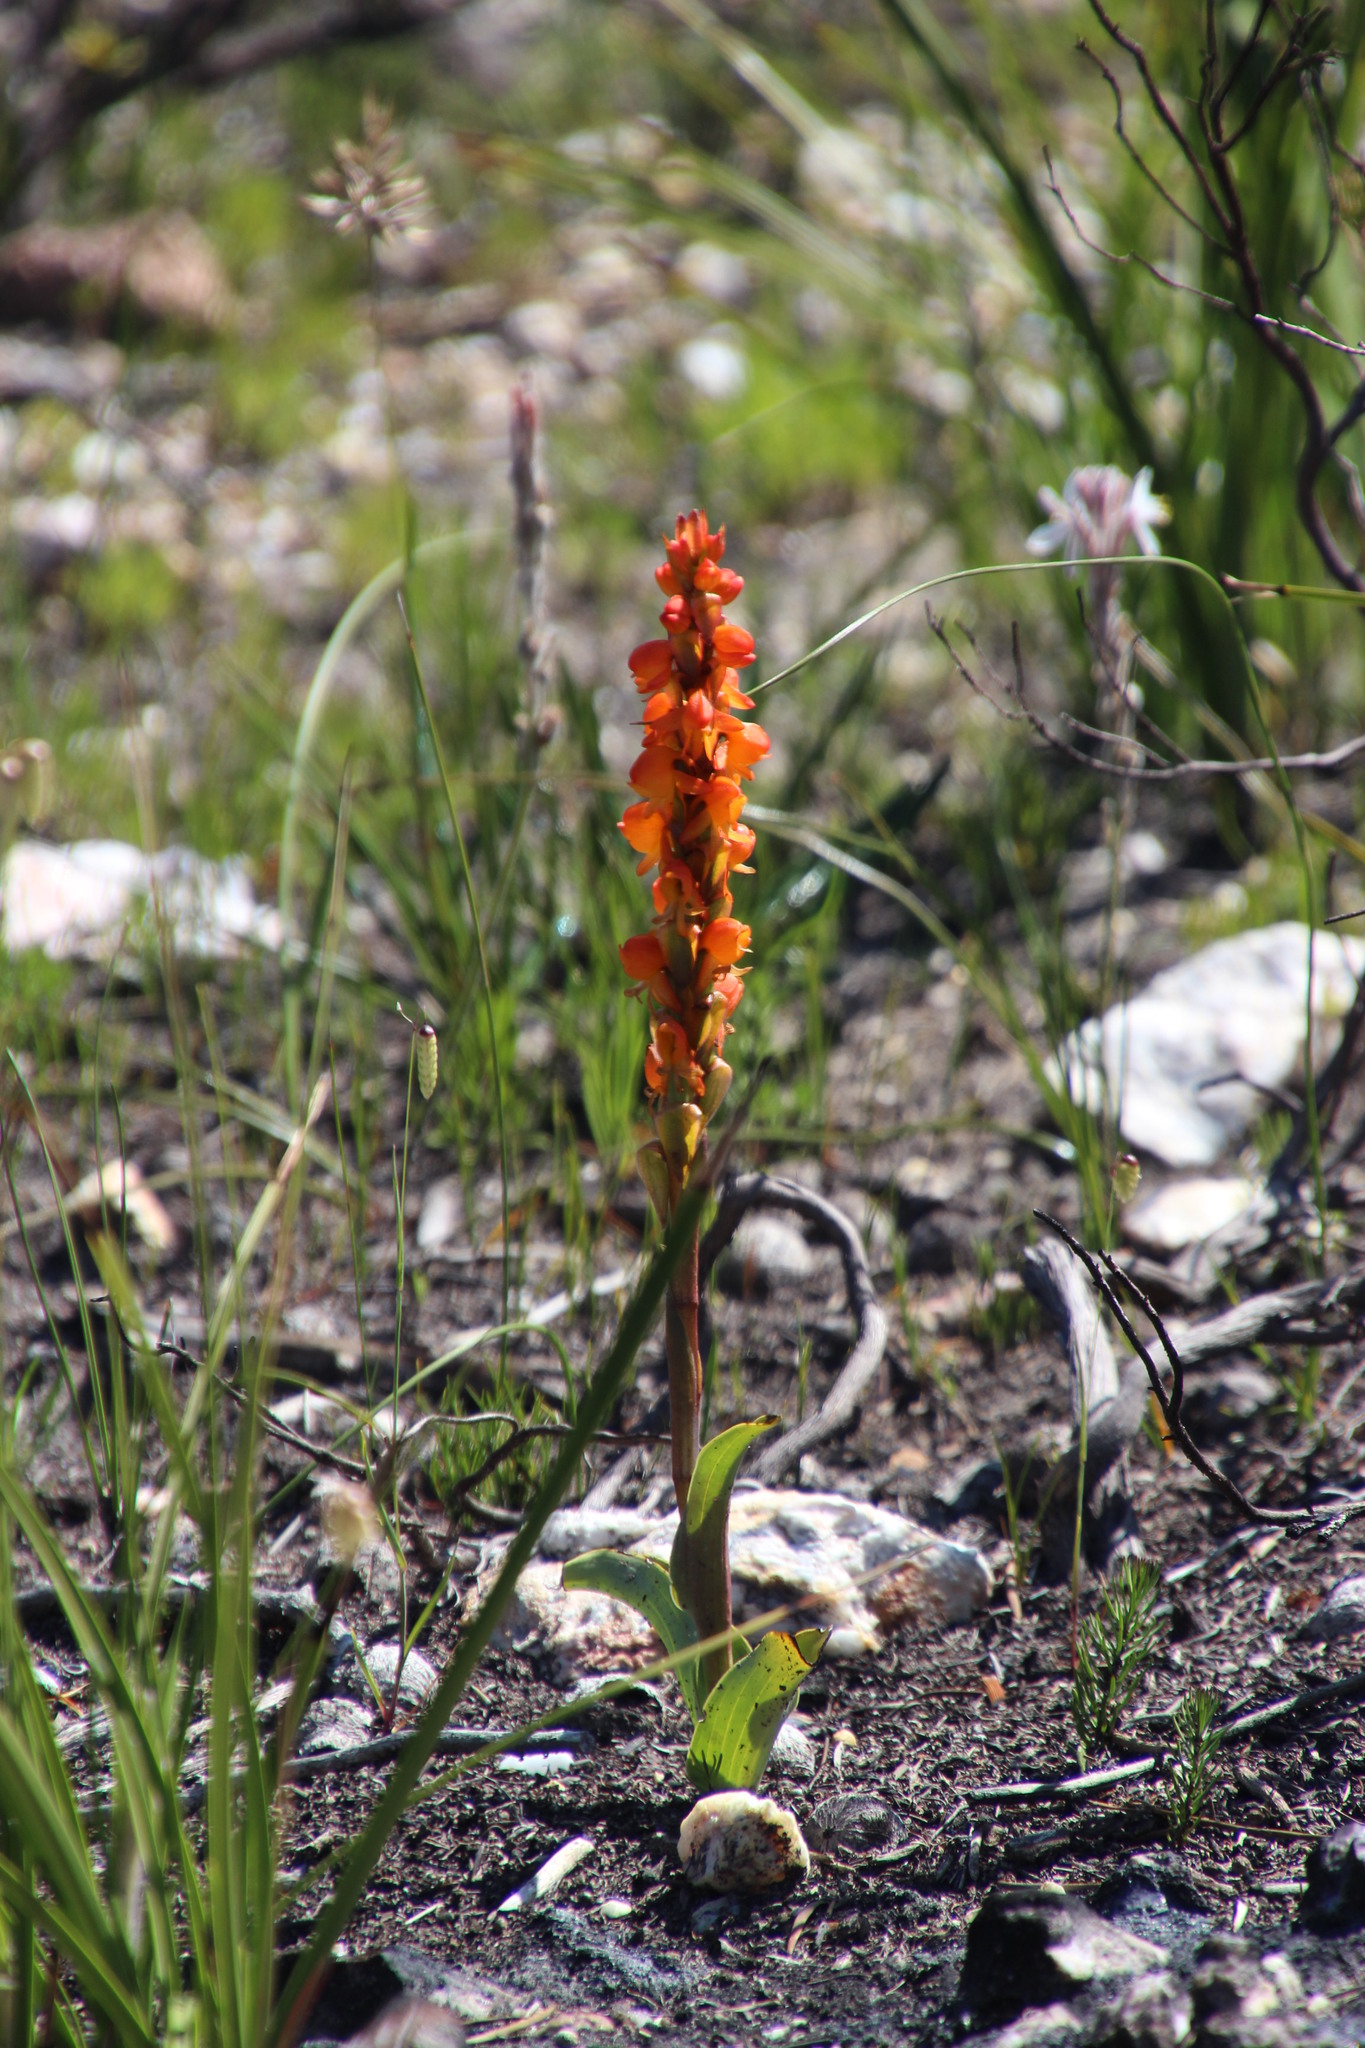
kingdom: Plantae
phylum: Tracheophyta
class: Liliopsida
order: Asparagales
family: Orchidaceae
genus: Satyrium
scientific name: Satyrium coriifolium
